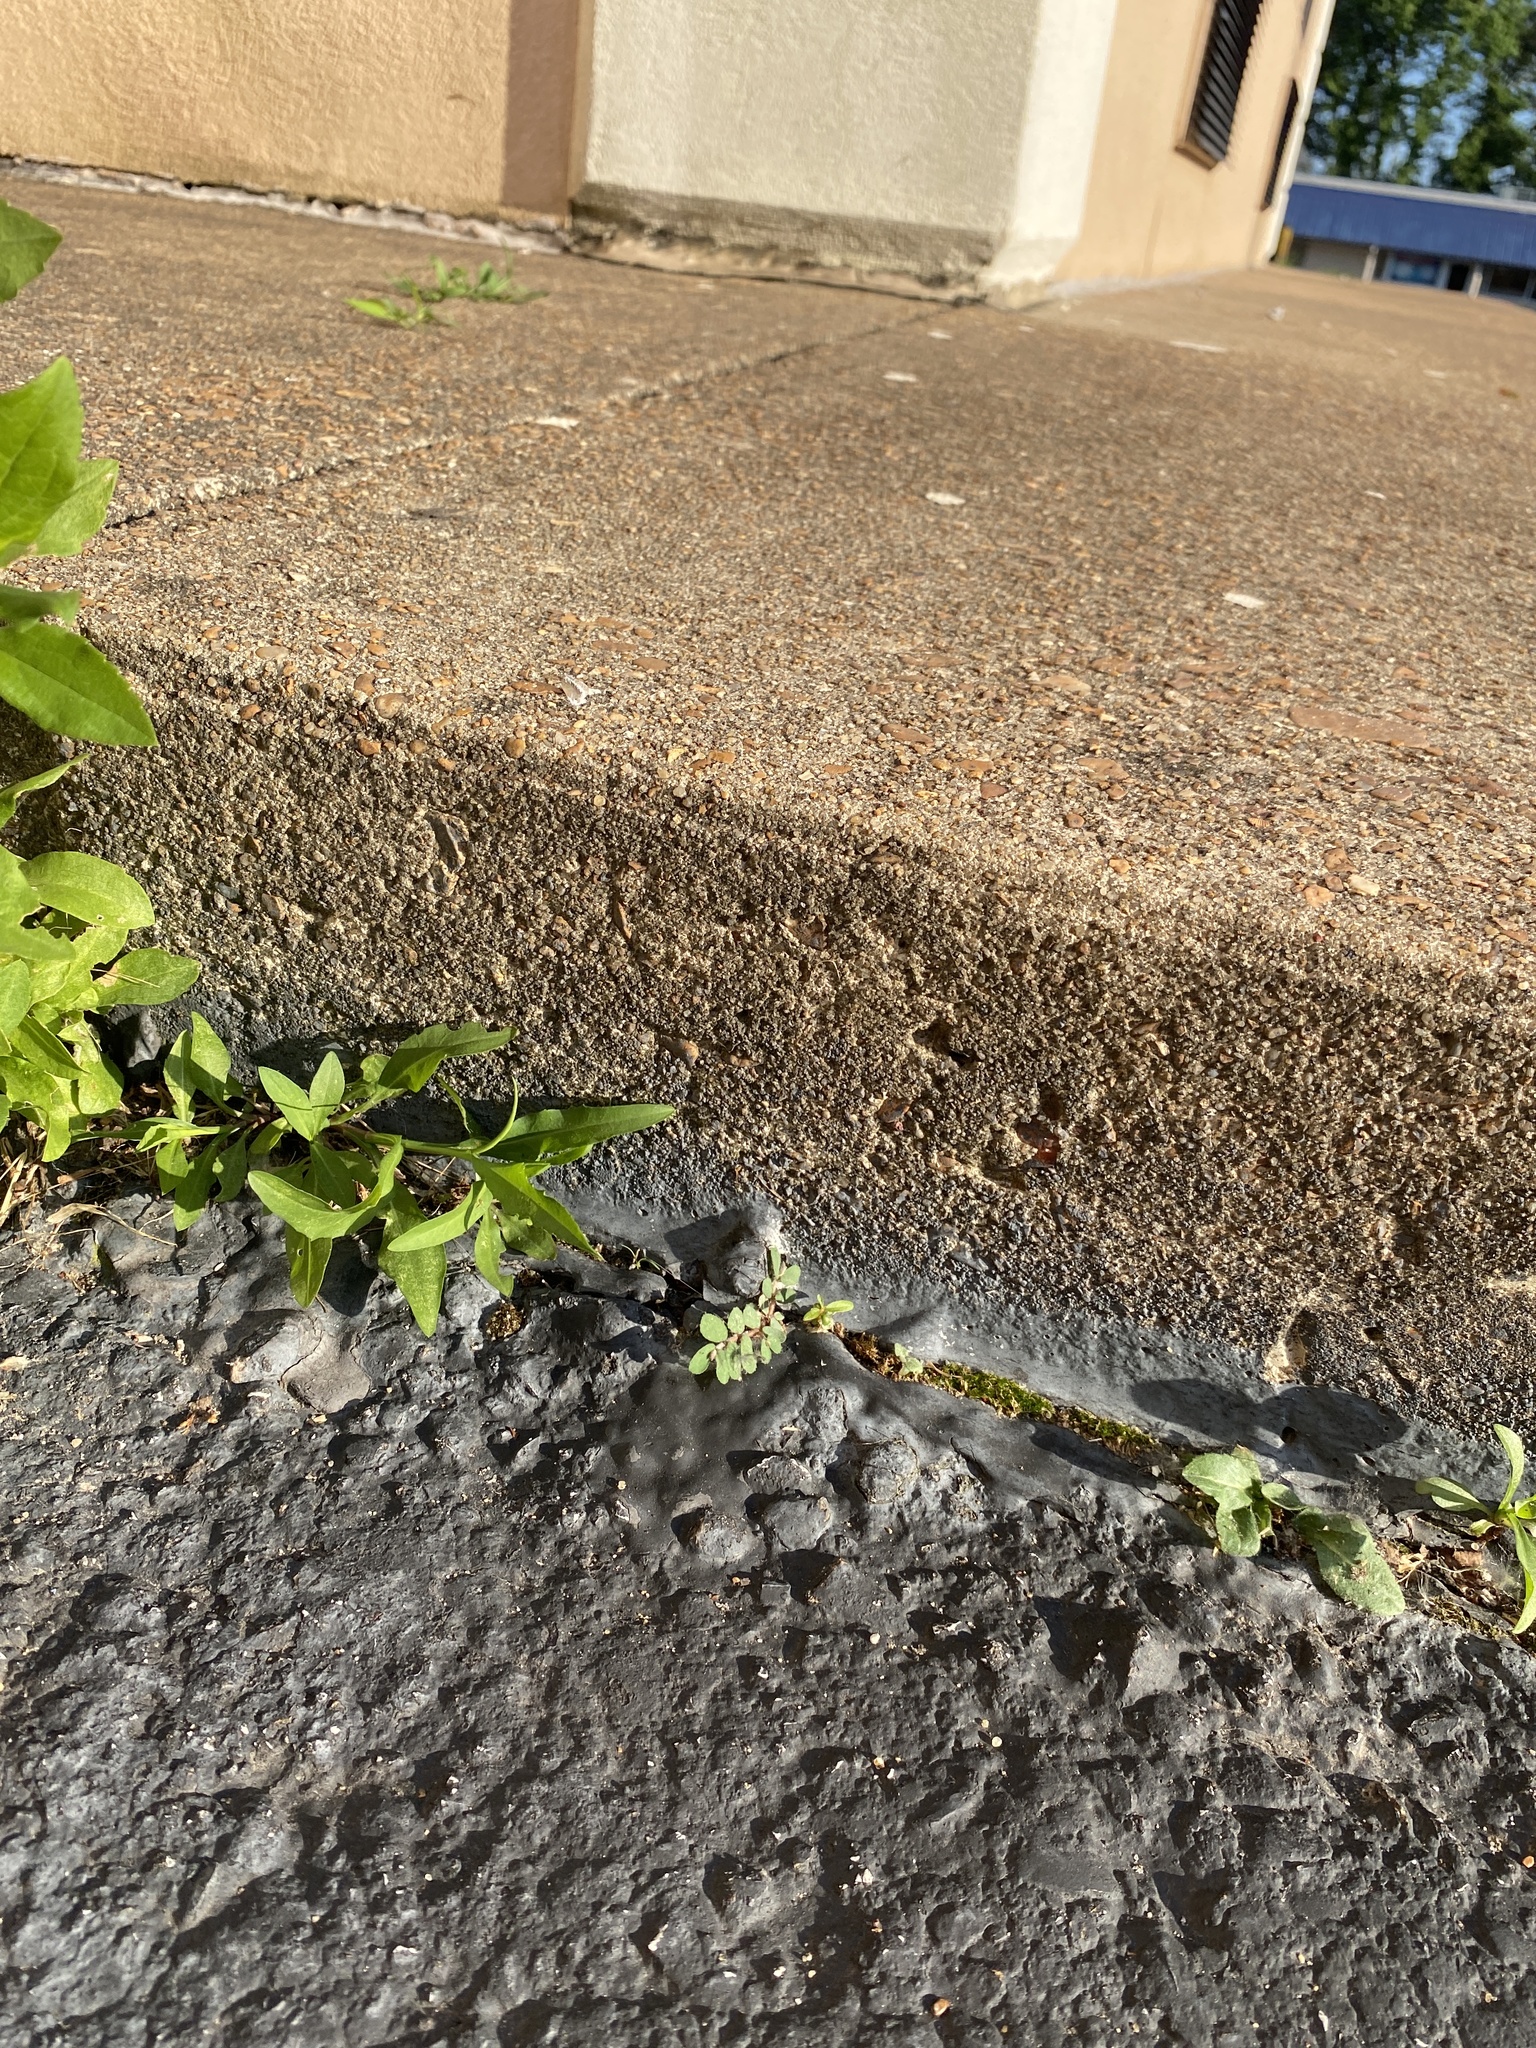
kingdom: Plantae
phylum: Tracheophyta
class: Magnoliopsida
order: Malpighiales
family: Euphorbiaceae
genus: Euphorbia
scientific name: Euphorbia maculata
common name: Spotted spurge
